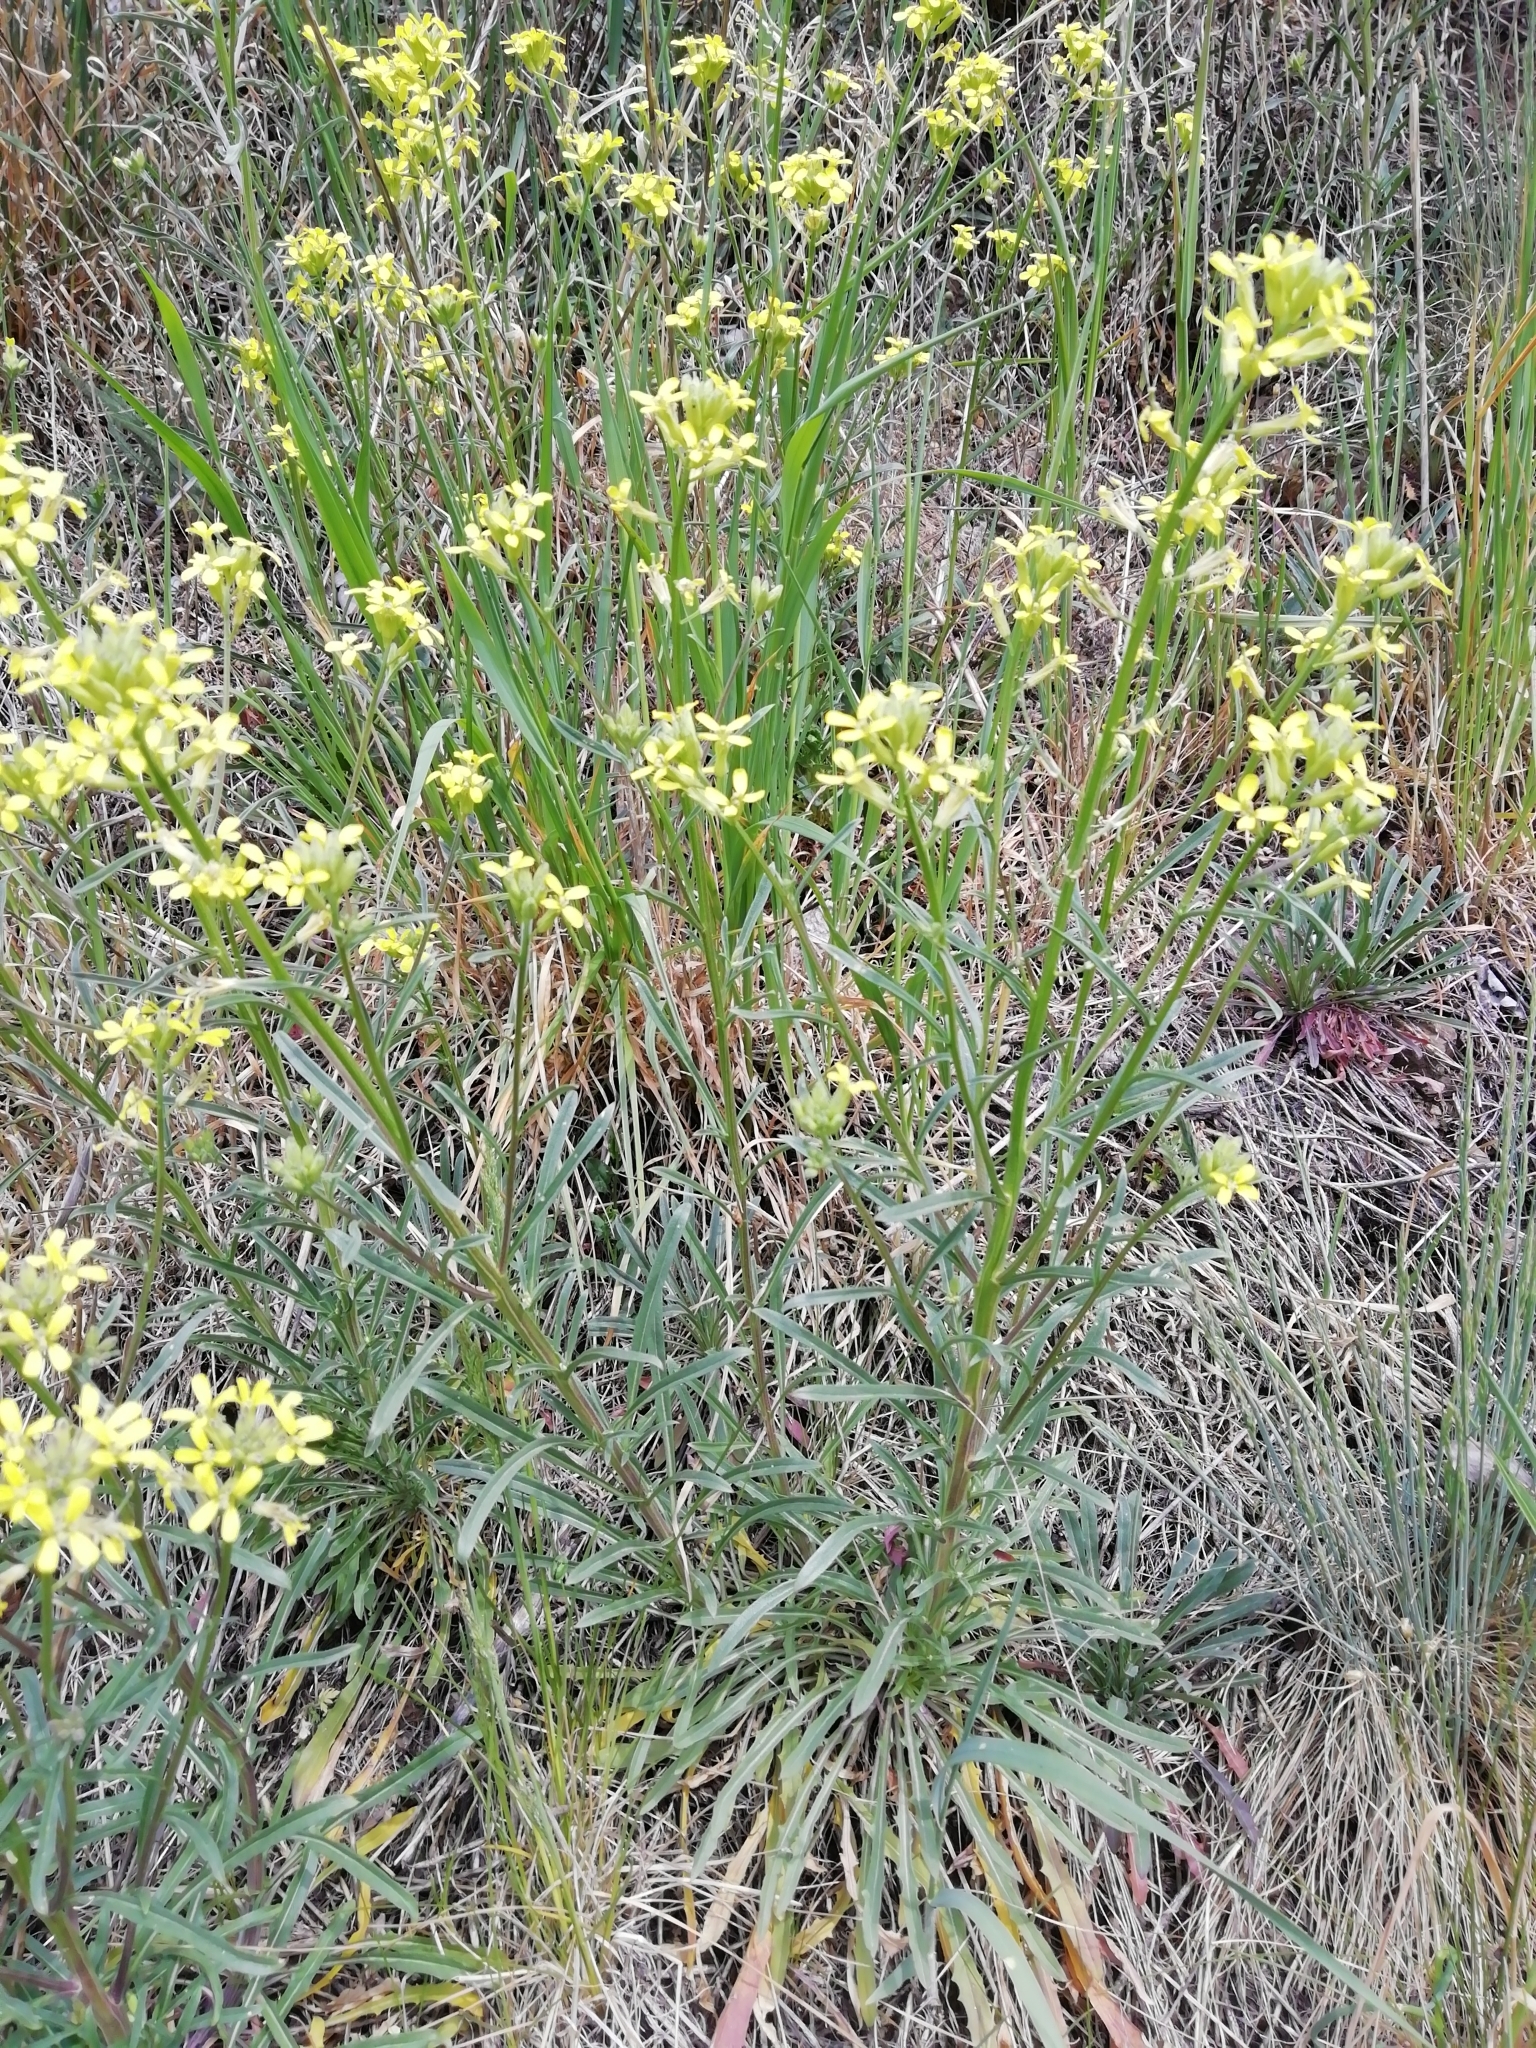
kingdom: Plantae
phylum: Tracheophyta
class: Magnoliopsida
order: Brassicales
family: Brassicaceae
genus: Erysimum
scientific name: Erysimum crepidifolium
